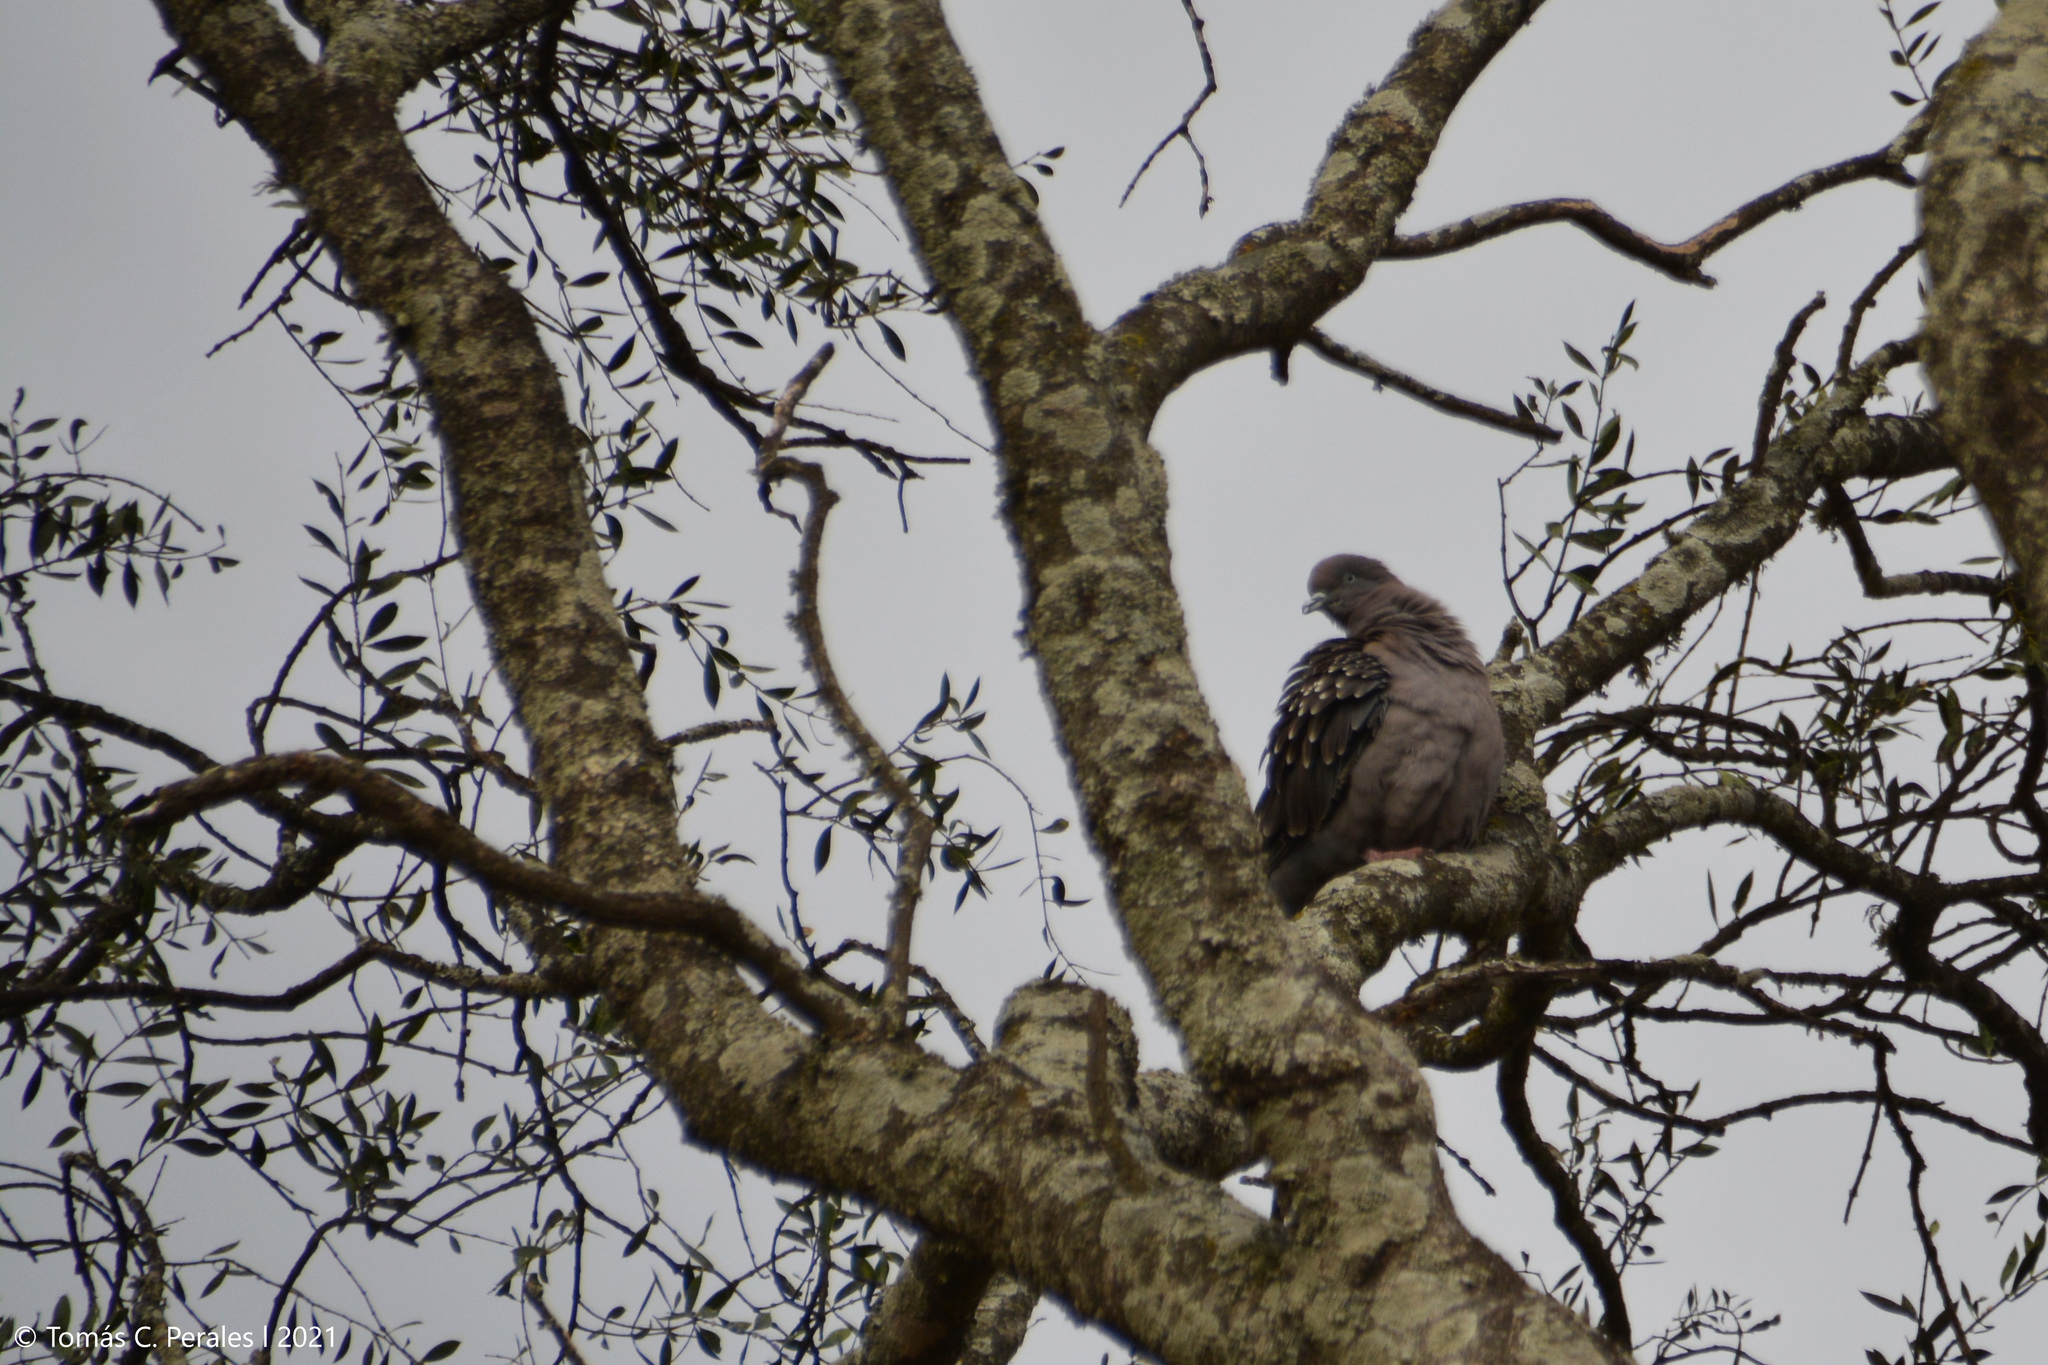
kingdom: Animalia
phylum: Chordata
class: Aves
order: Columbiformes
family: Columbidae
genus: Patagioenas
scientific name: Patagioenas maculosa
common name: Spot-winged pigeon
